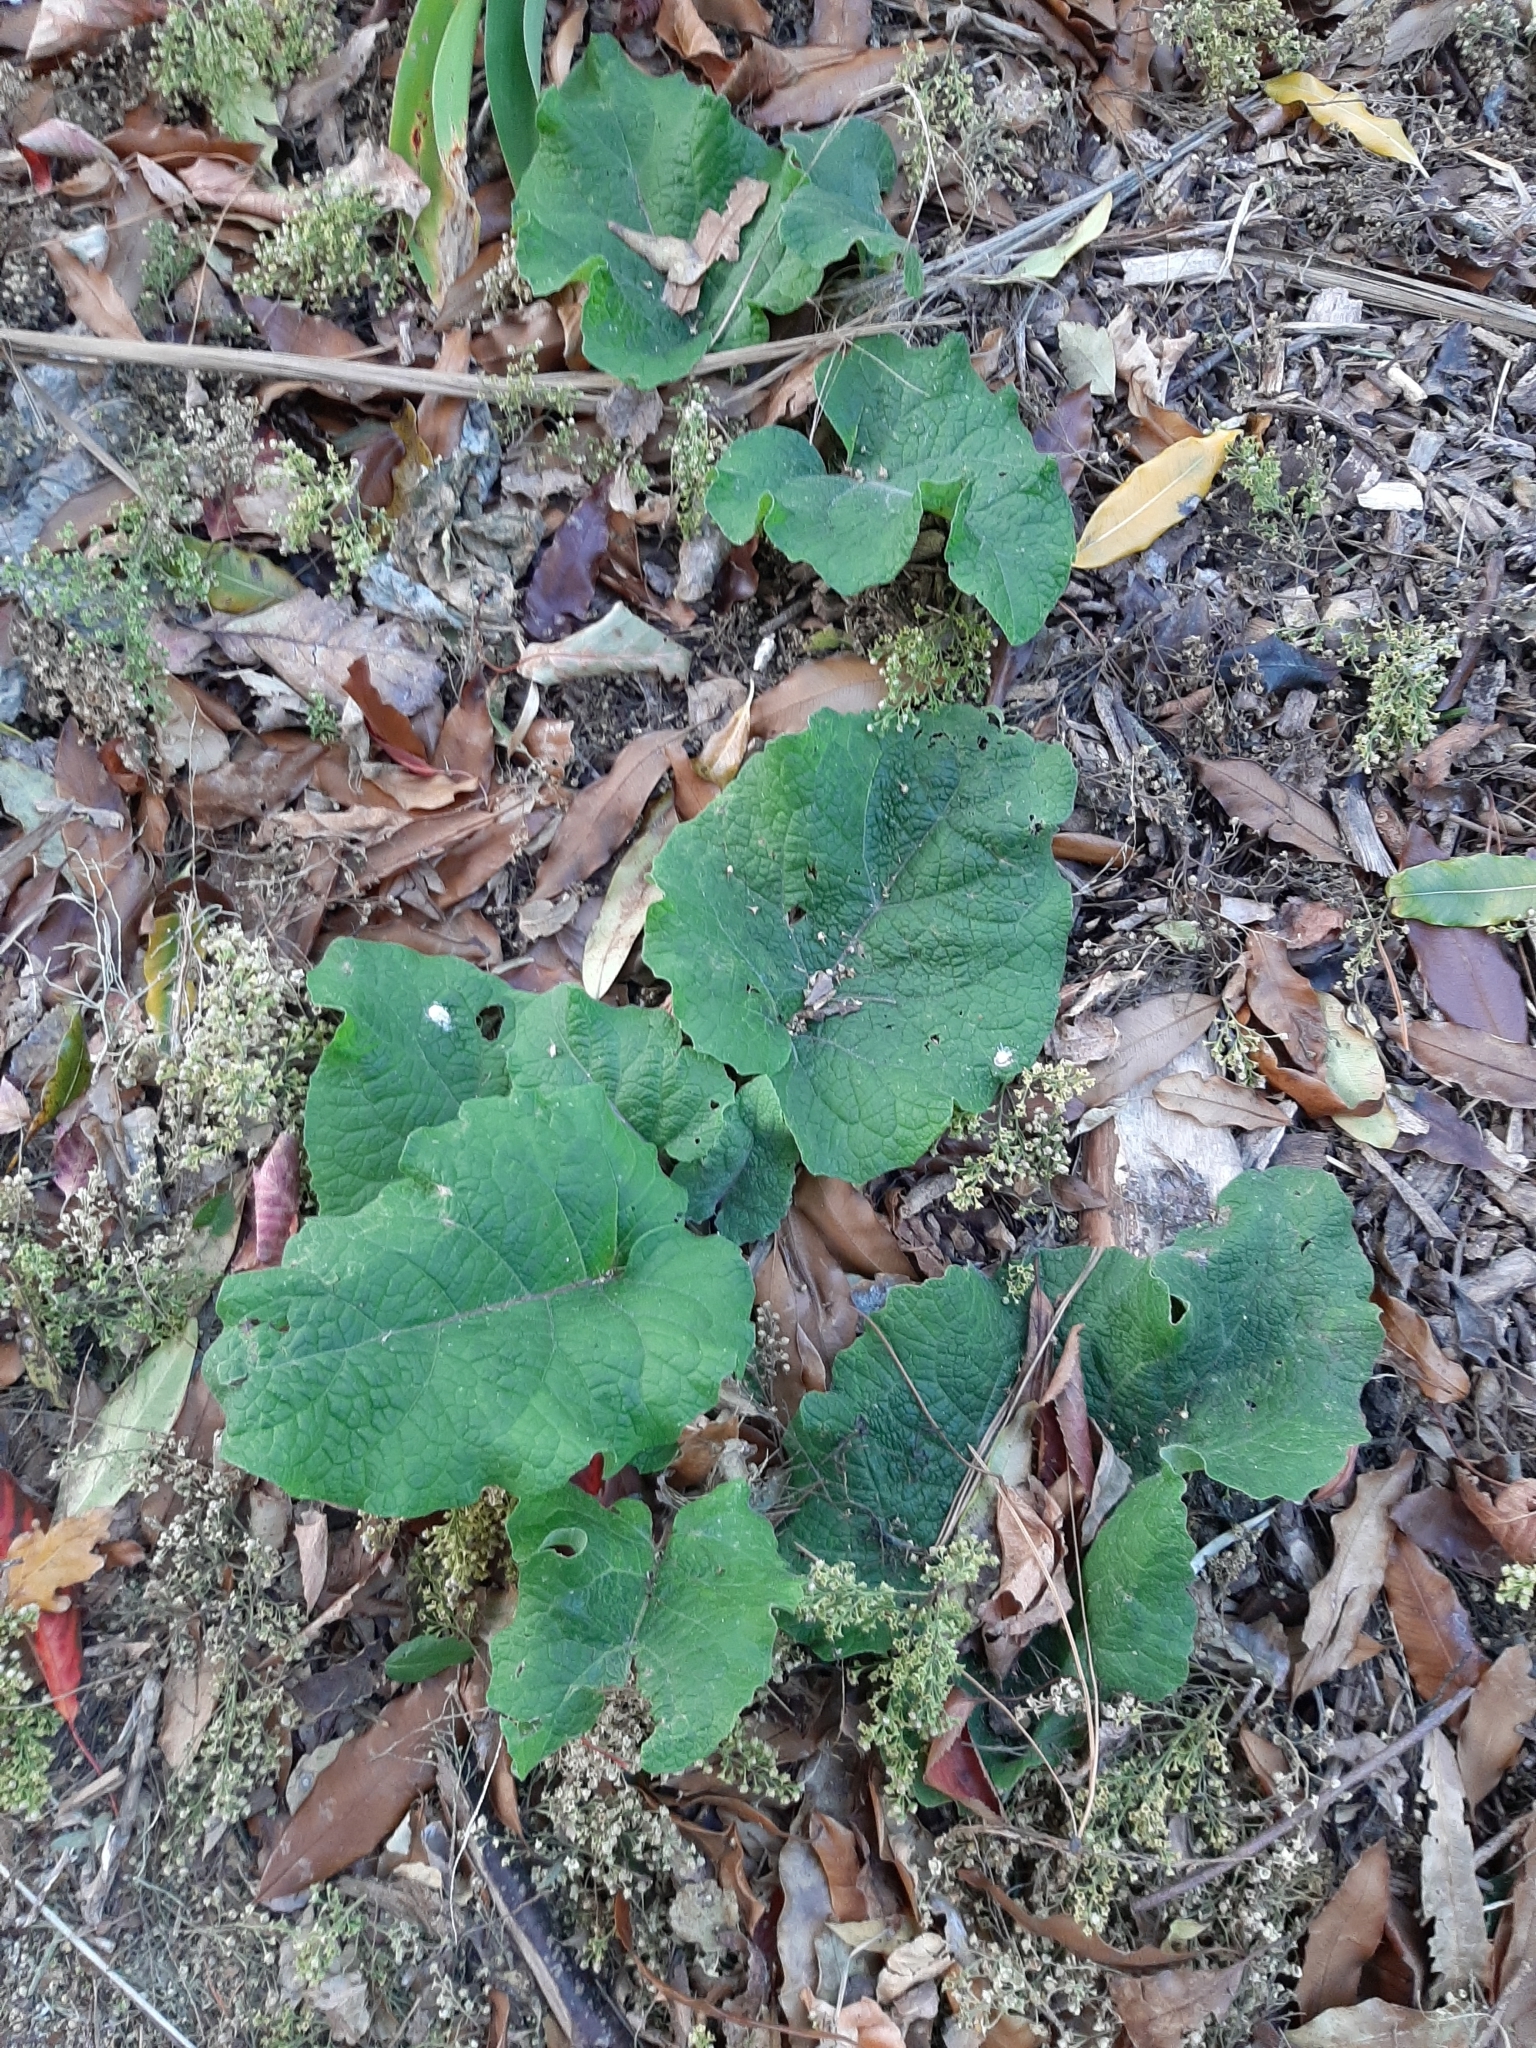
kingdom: Plantae
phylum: Tracheophyta
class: Magnoliopsida
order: Asterales
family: Asteraceae
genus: Arctium
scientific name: Arctium minus
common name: Lesser burdock
